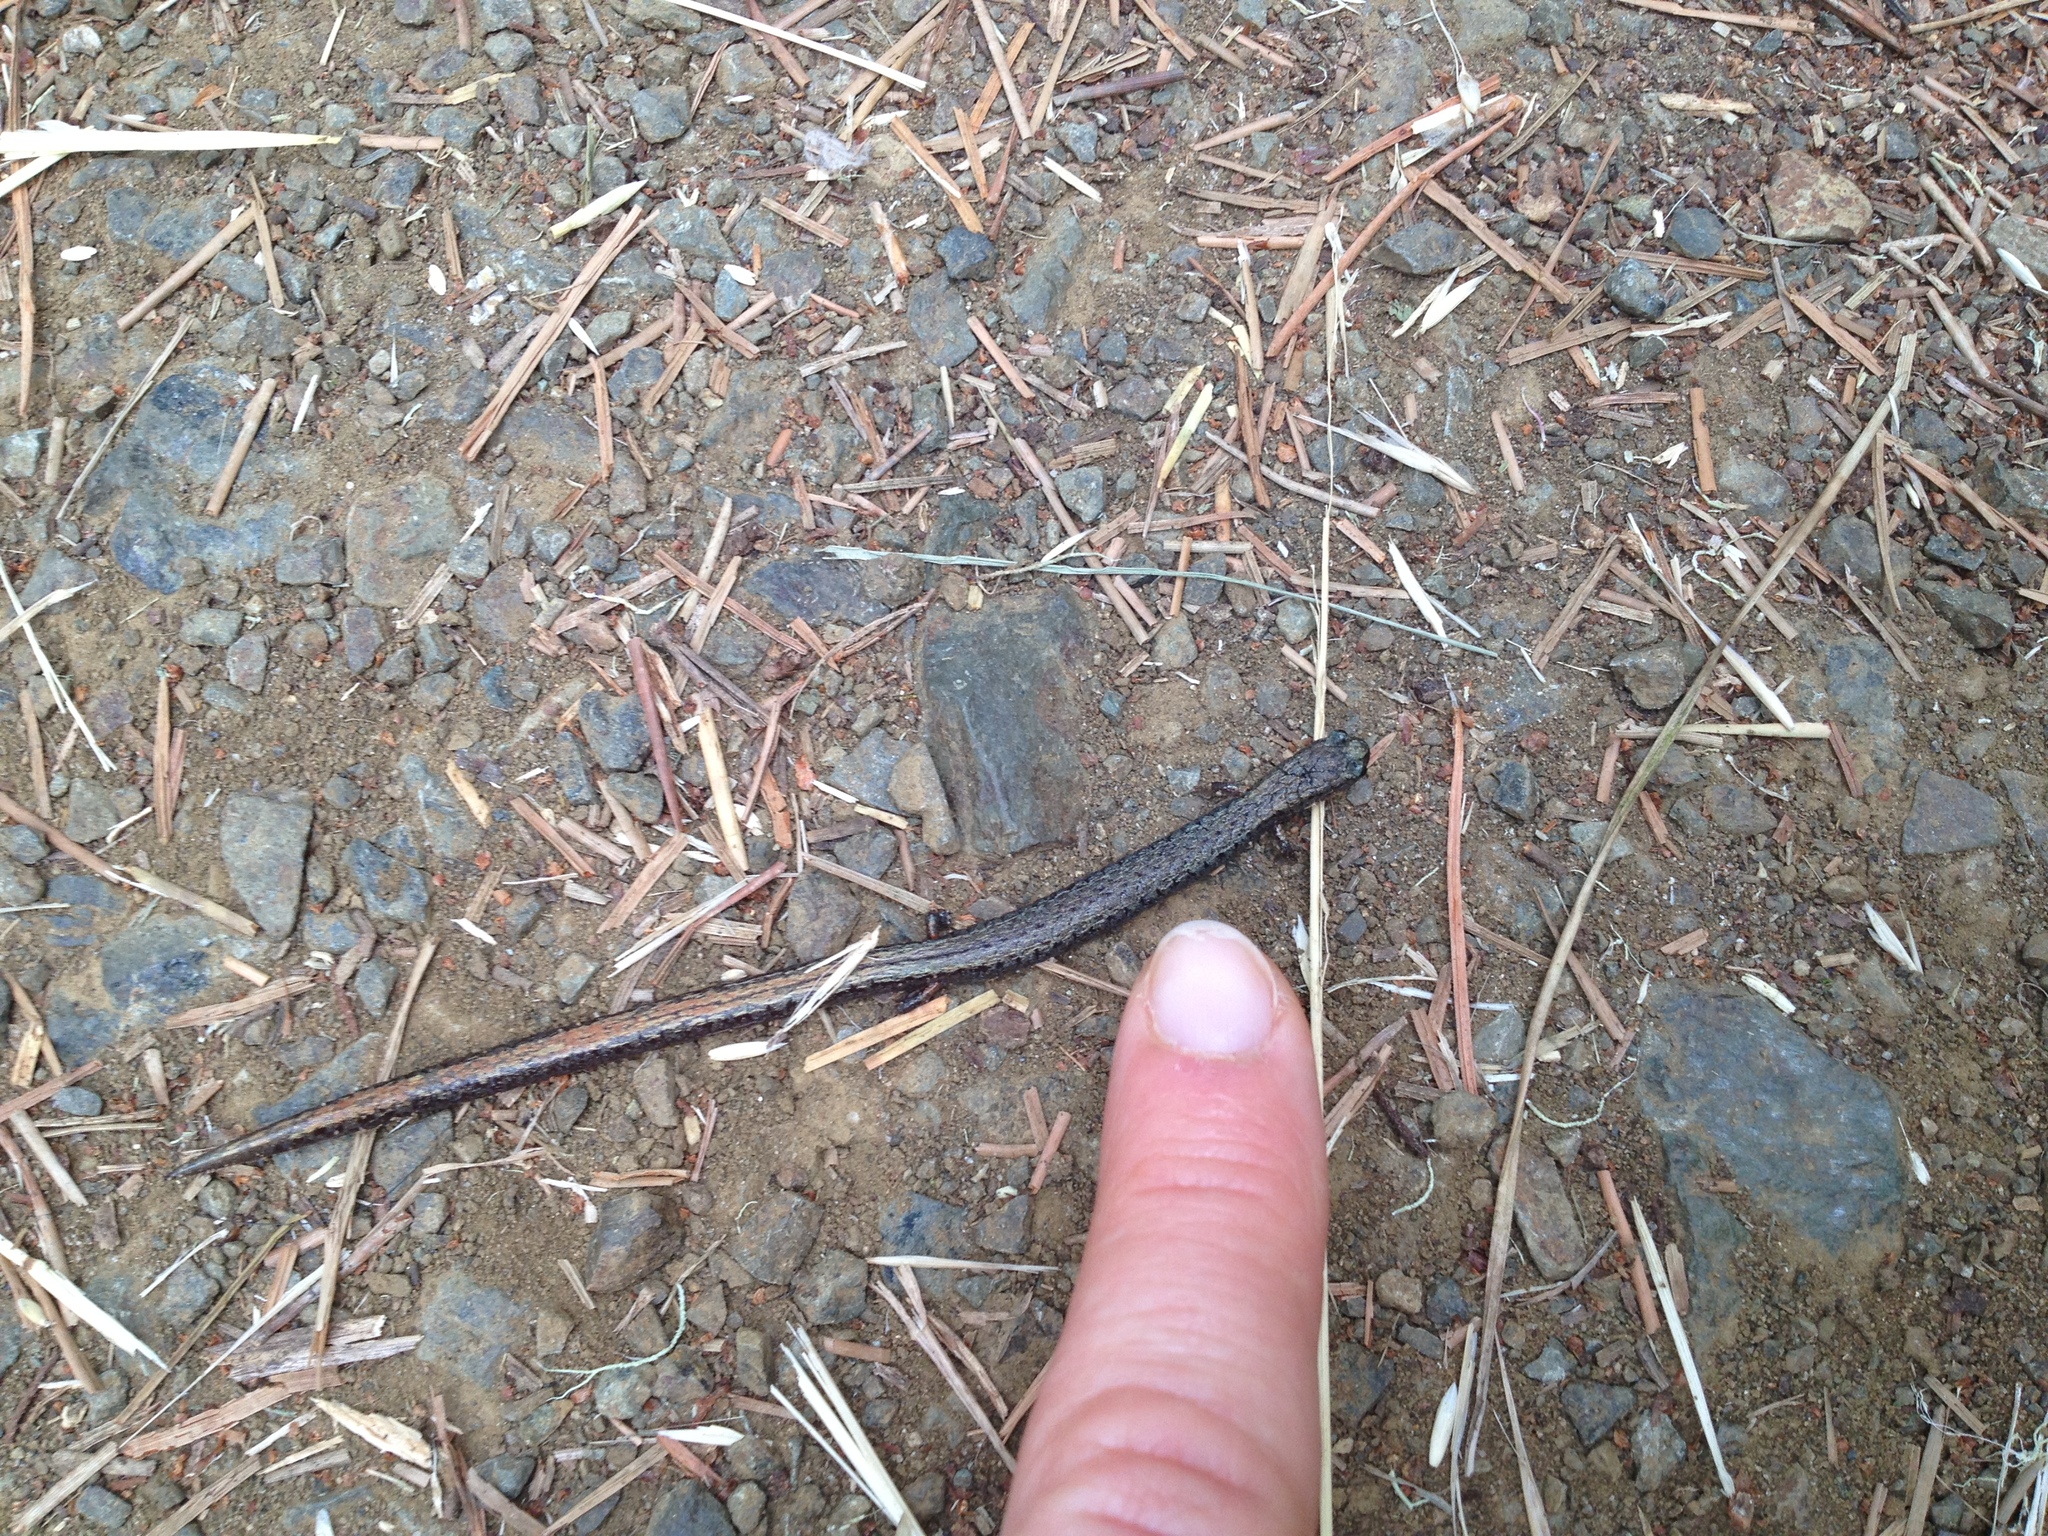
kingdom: Animalia
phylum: Chordata
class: Amphibia
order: Caudata
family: Plethodontidae
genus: Batrachoseps
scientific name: Batrachoseps attenuatus
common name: California slender salamander
